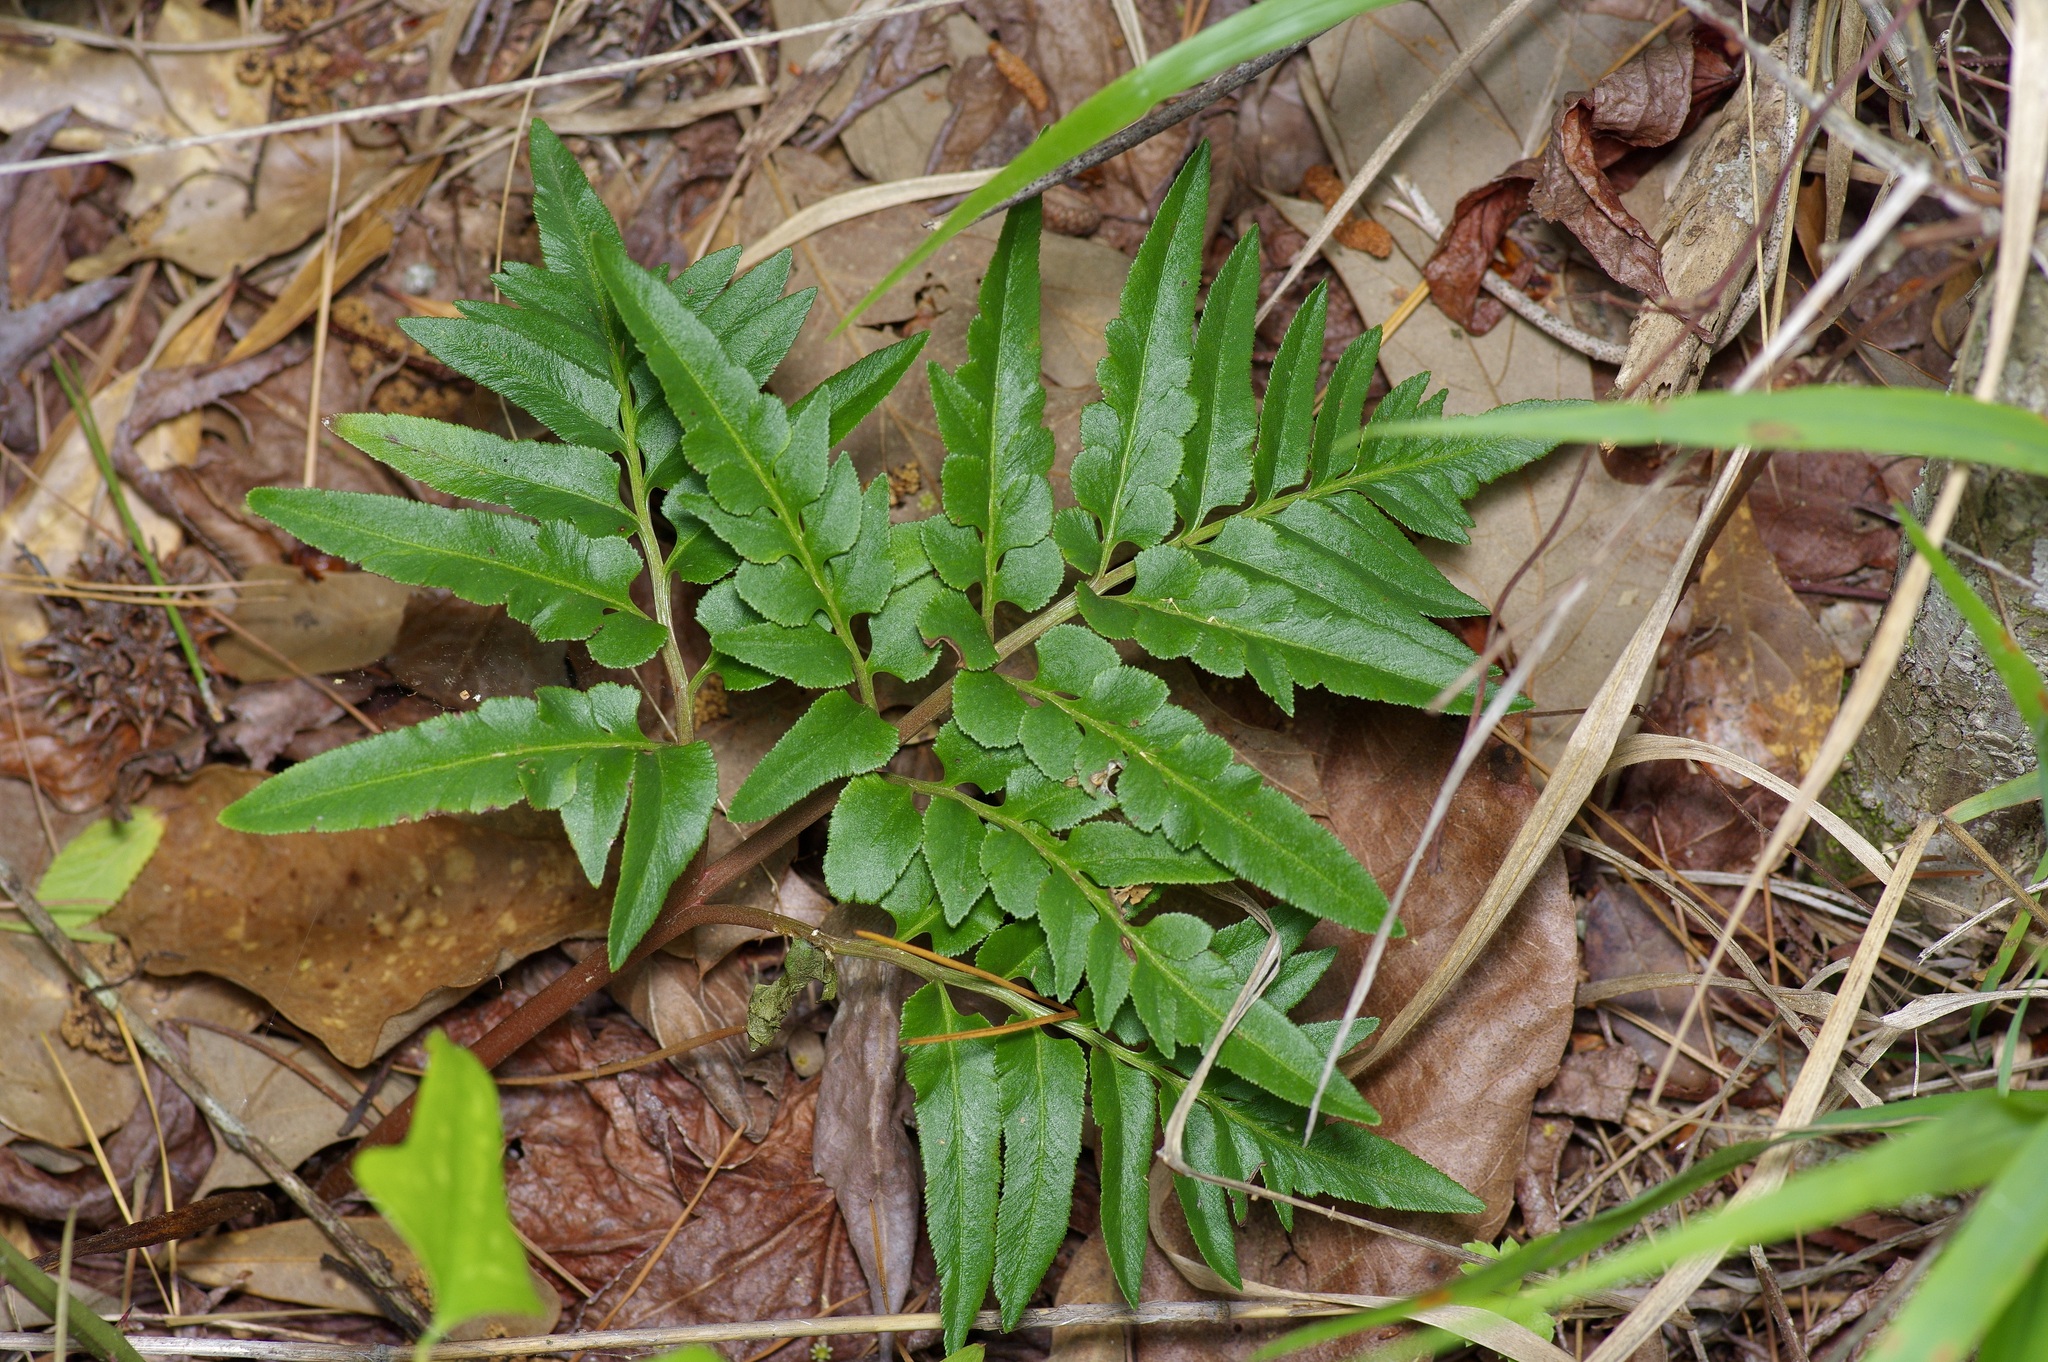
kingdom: Plantae
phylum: Tracheophyta
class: Polypodiopsida
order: Ophioglossales
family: Ophioglossaceae
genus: Sceptridium
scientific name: Sceptridium biternatum
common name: Sparse-lobed grapefern
